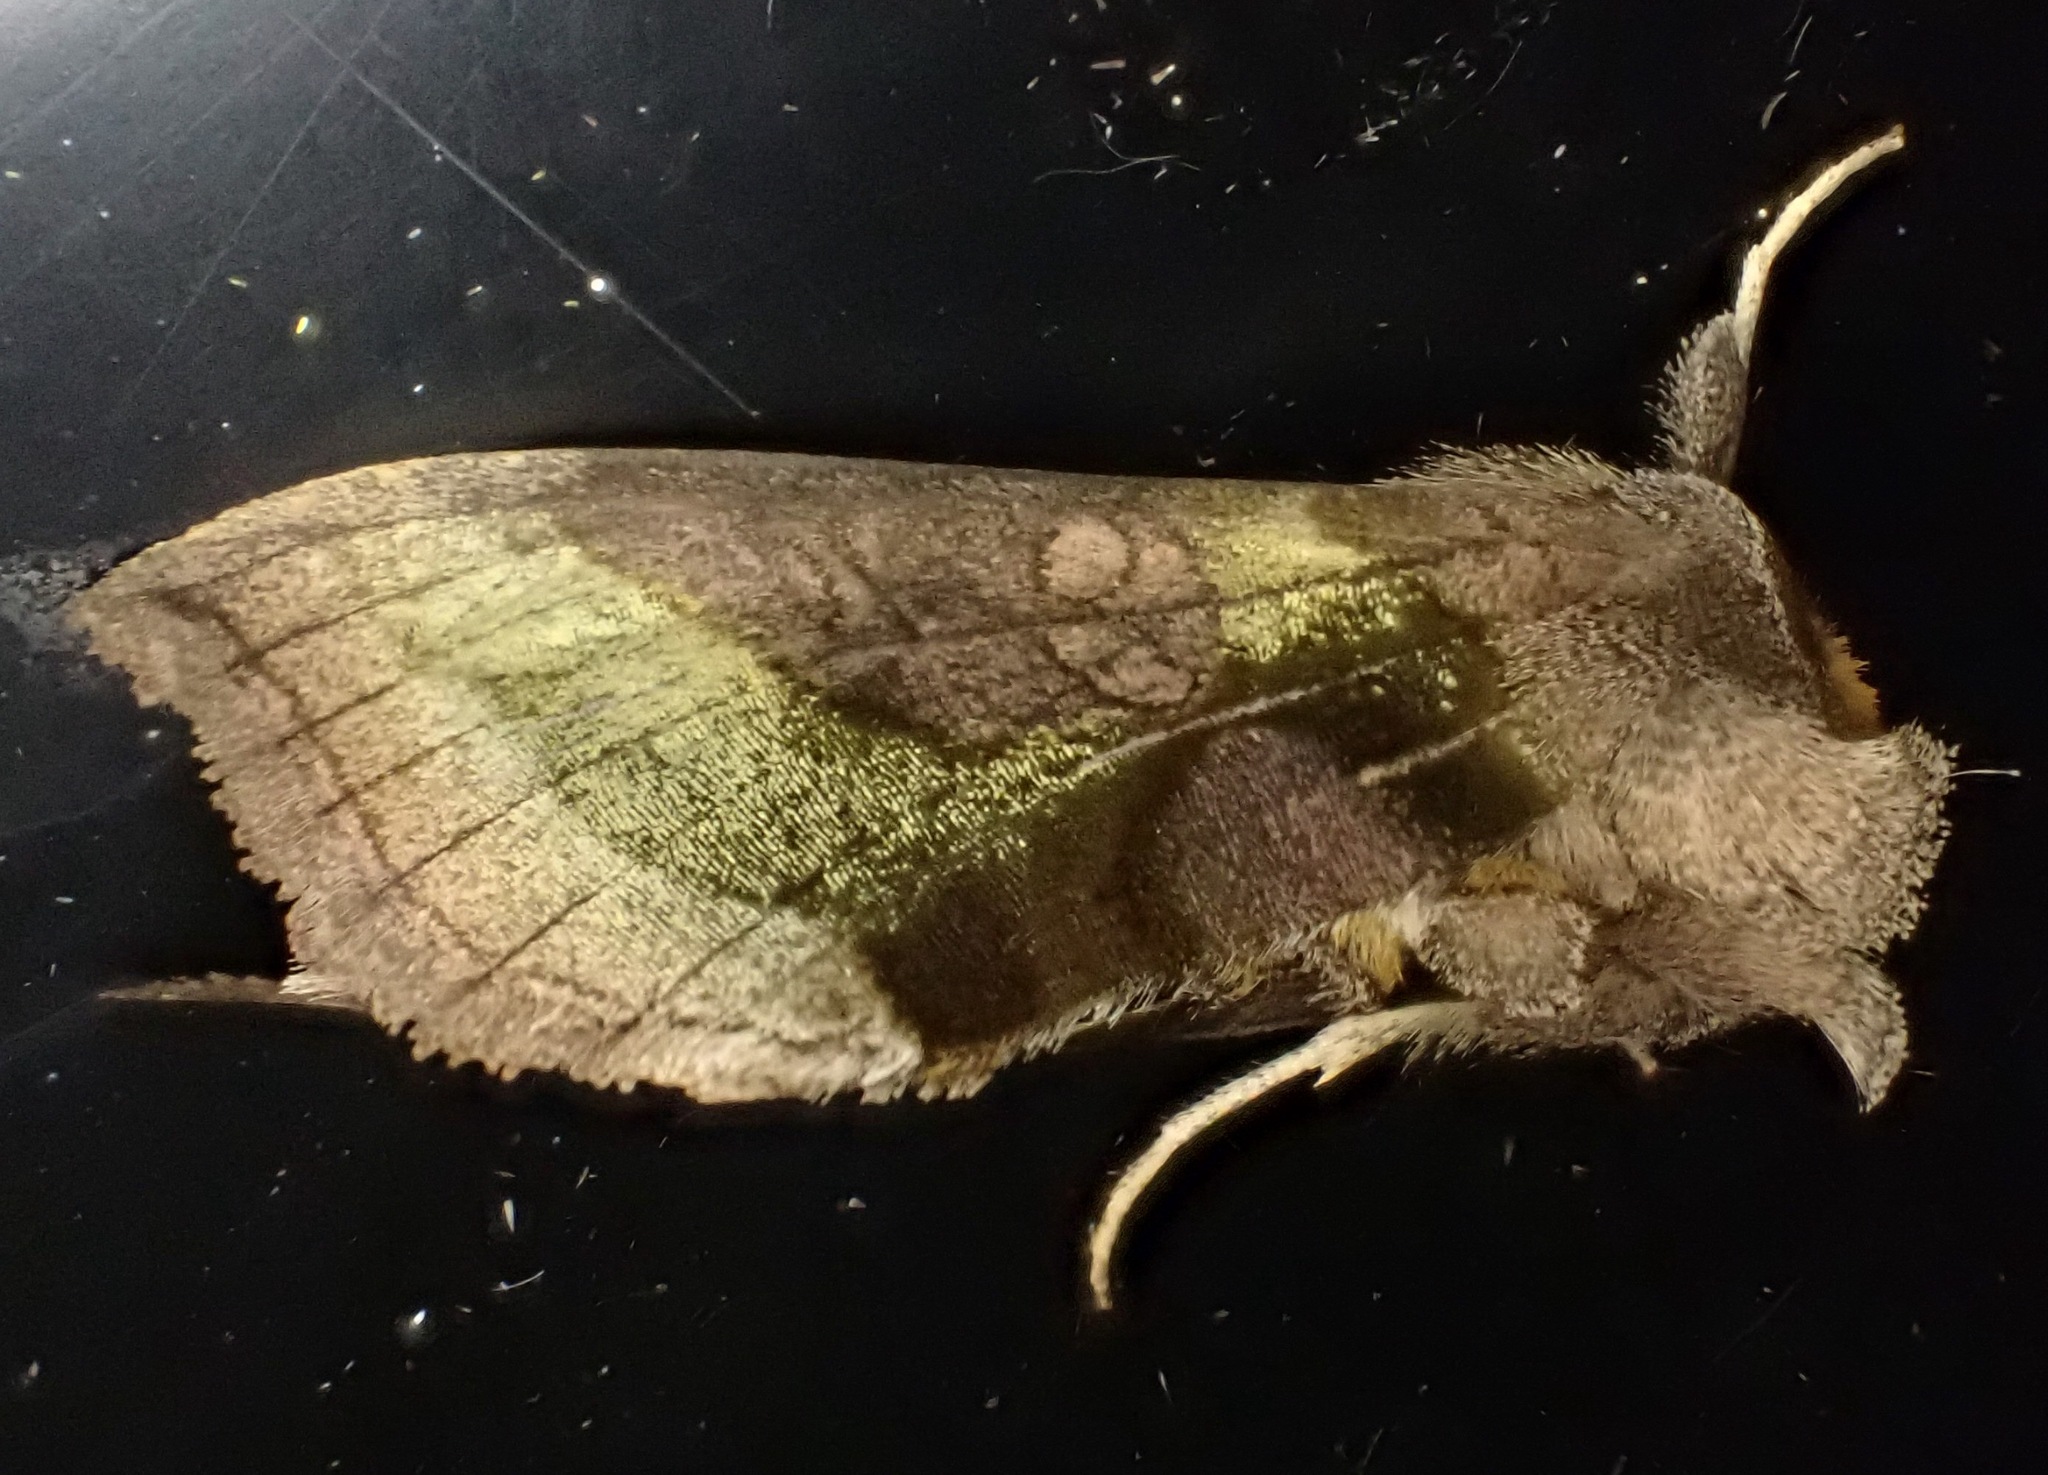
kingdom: Animalia
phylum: Arthropoda
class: Insecta
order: Lepidoptera
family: Noctuidae
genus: Diachrysia
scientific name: Diachrysia chrysitis
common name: Burnished brass
